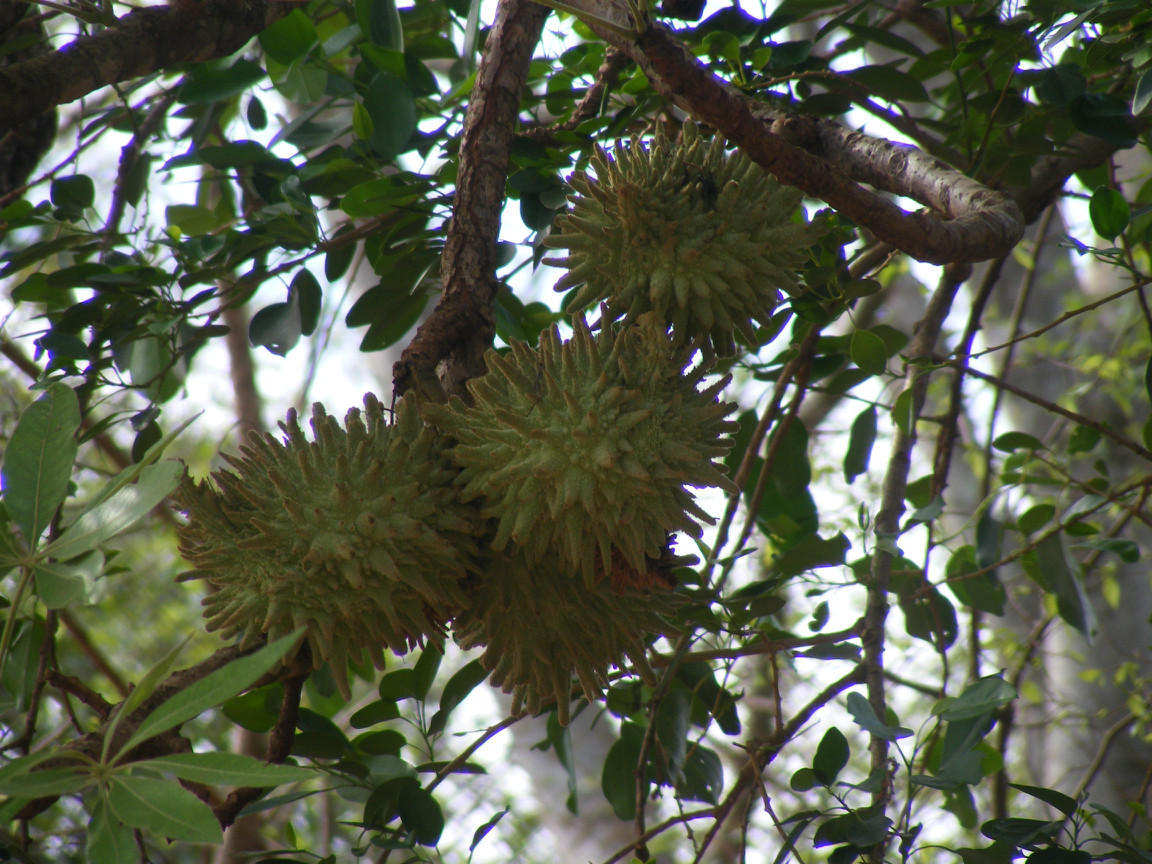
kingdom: Plantae
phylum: Tracheophyta
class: Magnoliopsida
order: Malvales
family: Malvaceae
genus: Sterculia
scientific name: Sterculia murex
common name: Lowveld star-chestnut
